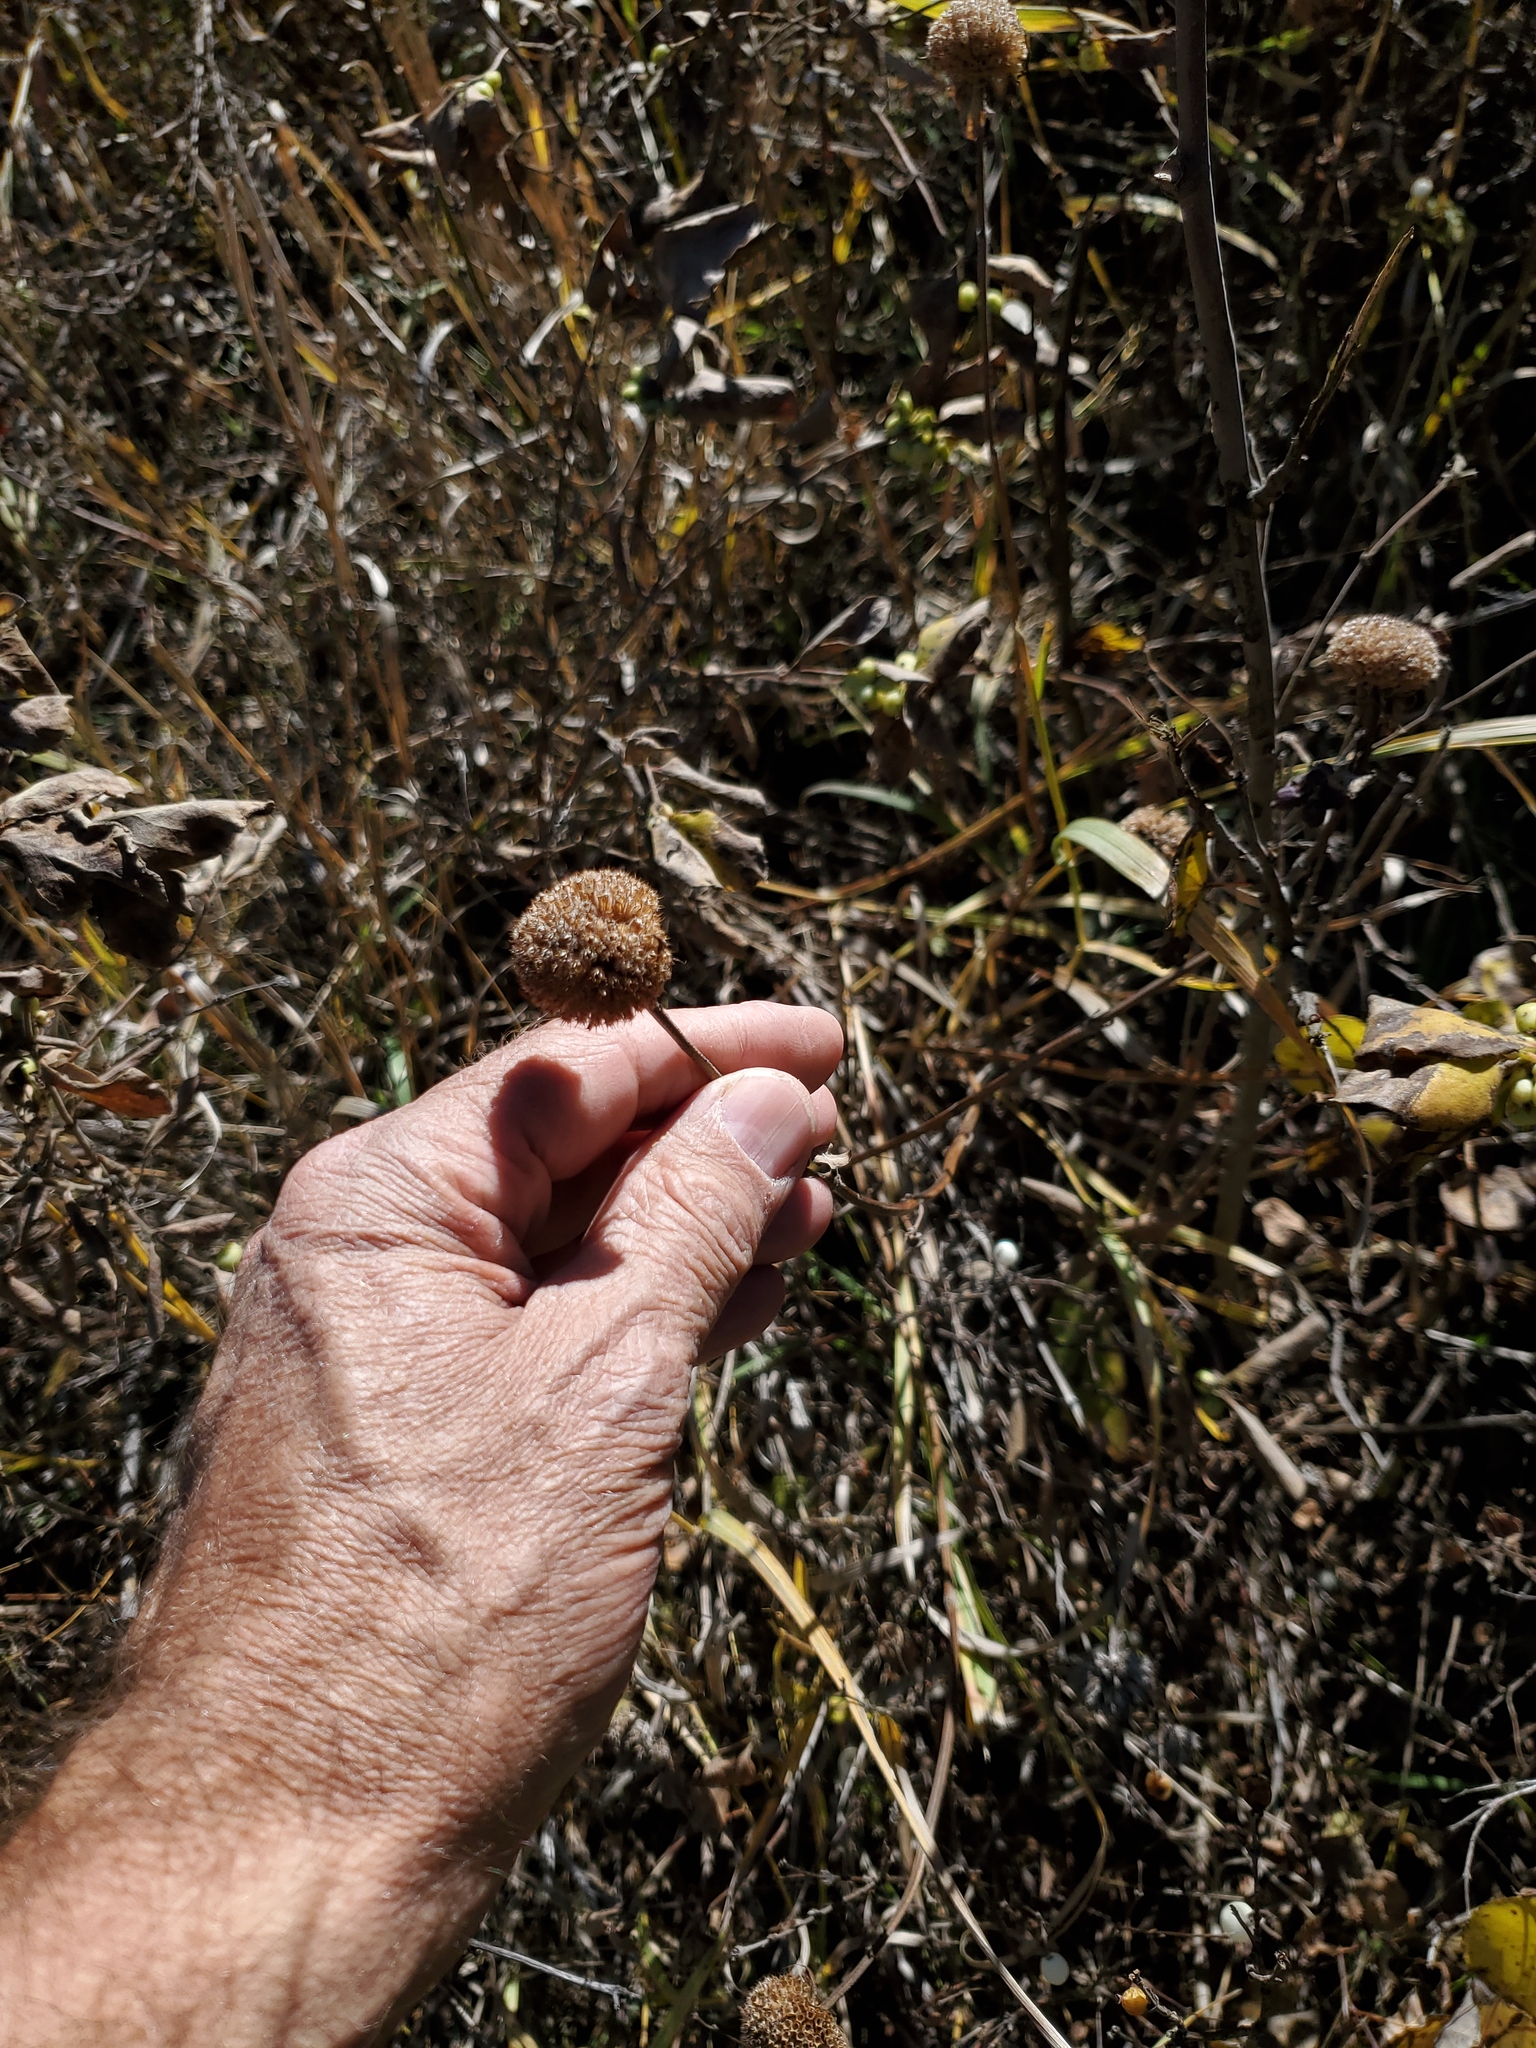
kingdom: Plantae
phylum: Tracheophyta
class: Magnoliopsida
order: Lamiales
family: Lamiaceae
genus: Monarda
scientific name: Monarda fistulosa
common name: Purple beebalm
